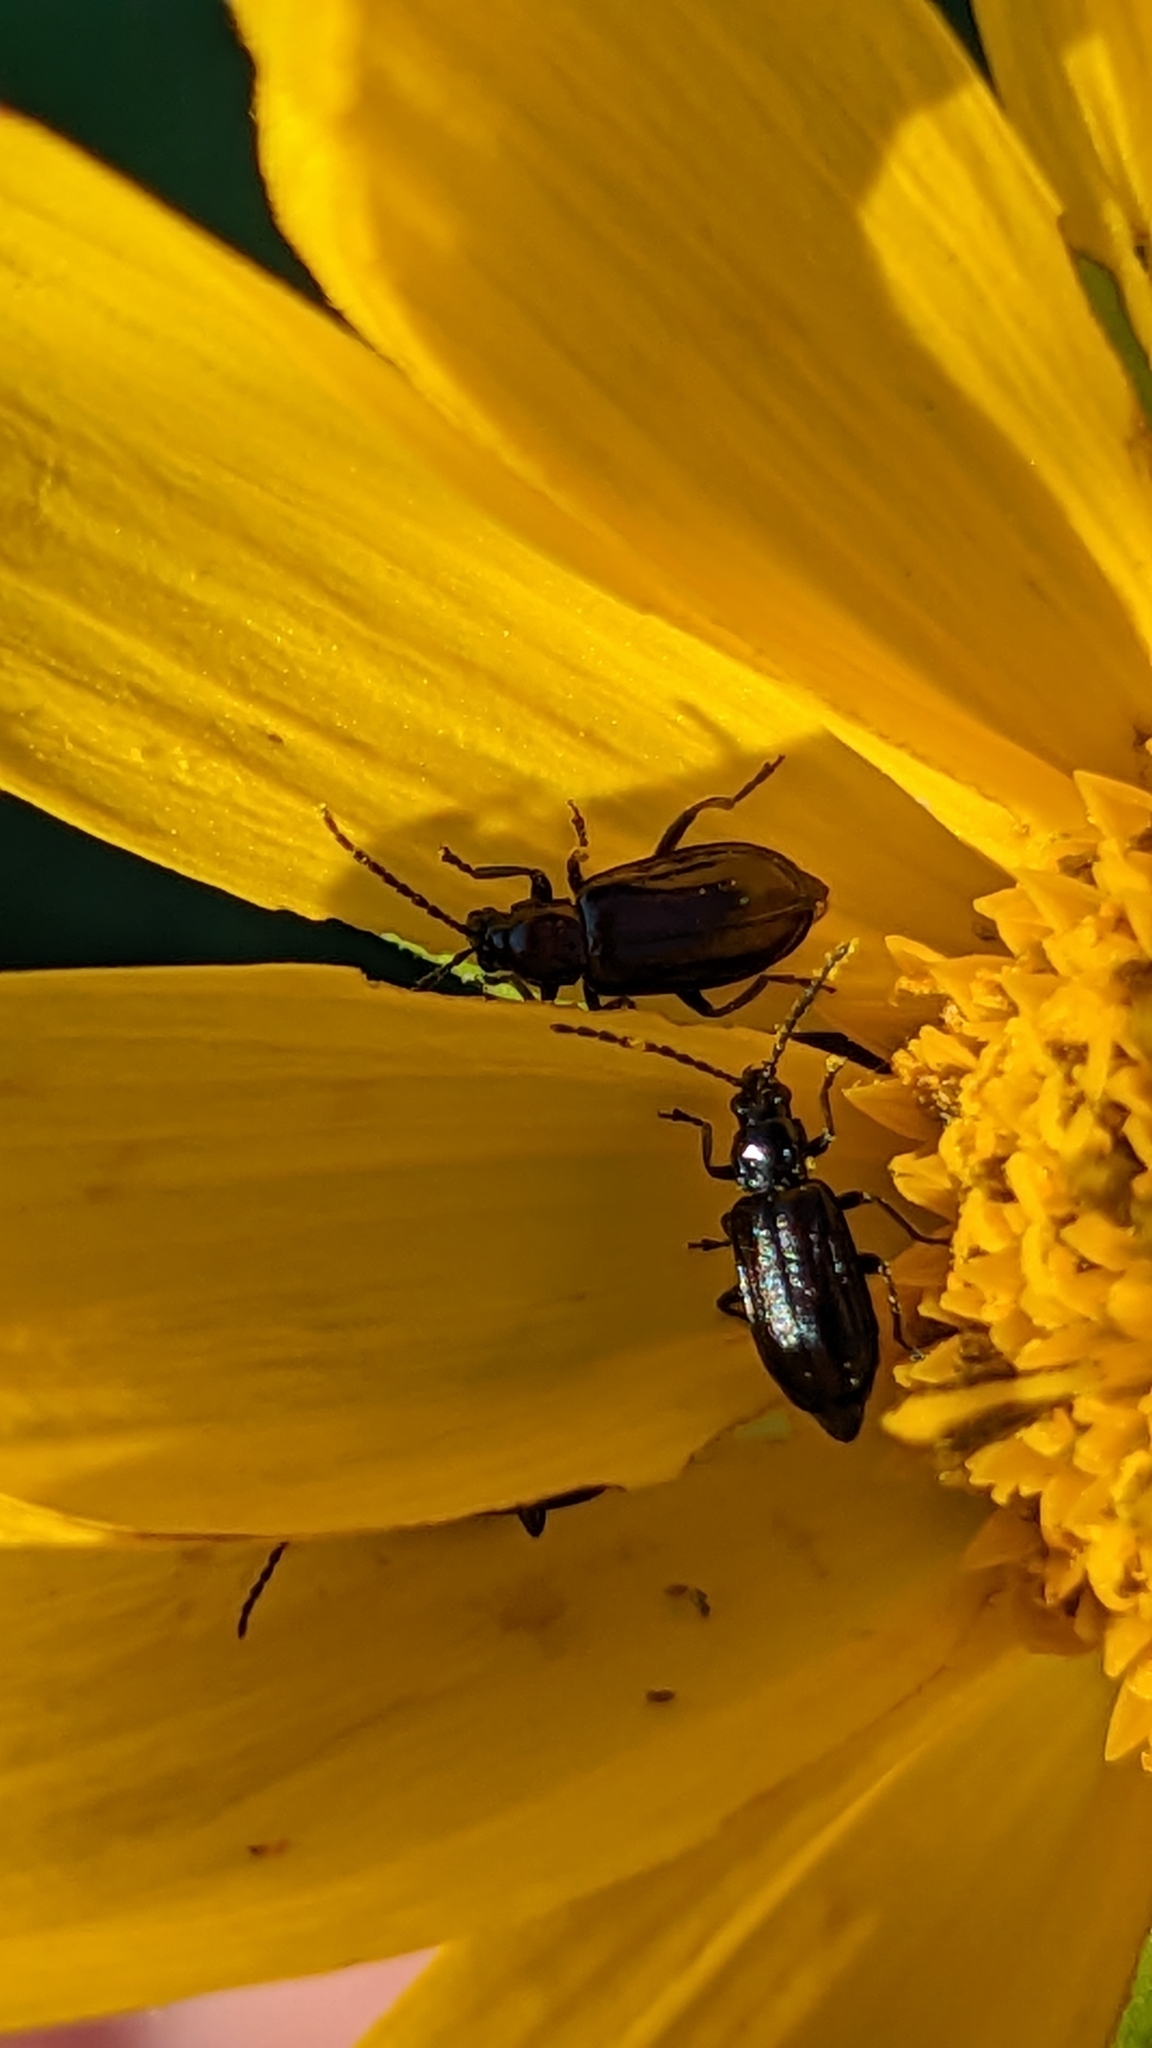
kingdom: Animalia
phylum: Arthropoda
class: Insecta
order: Coleoptera
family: Chrysomelidae
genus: Diabrotica
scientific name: Diabrotica cristata
